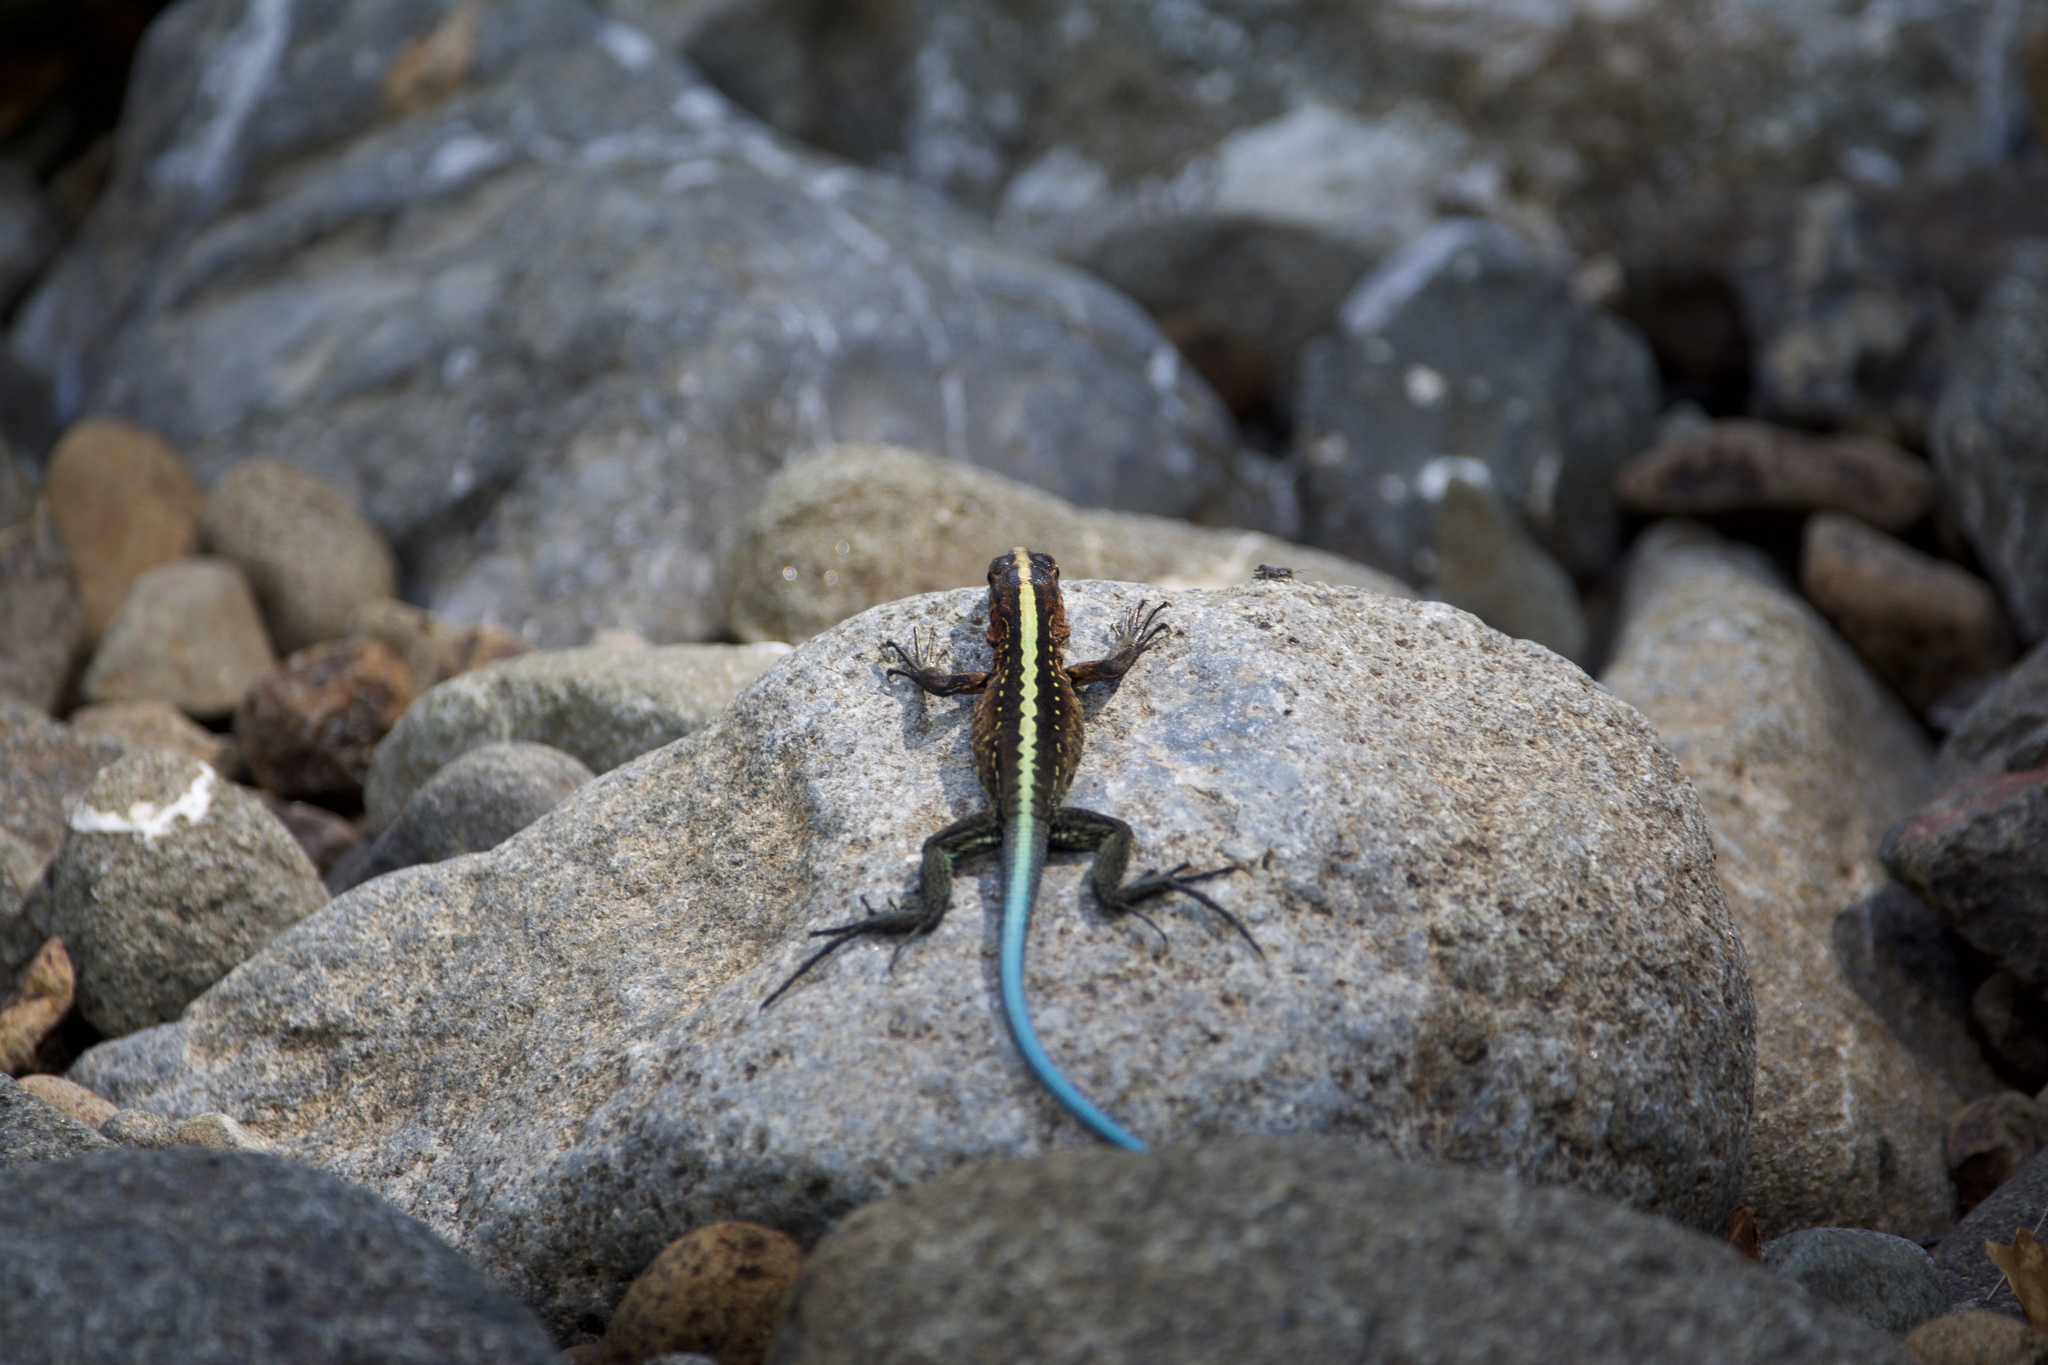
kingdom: Animalia
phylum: Chordata
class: Squamata
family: Teiidae
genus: Holcosus
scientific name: Holcosus festivus
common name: Middle american ameiva
